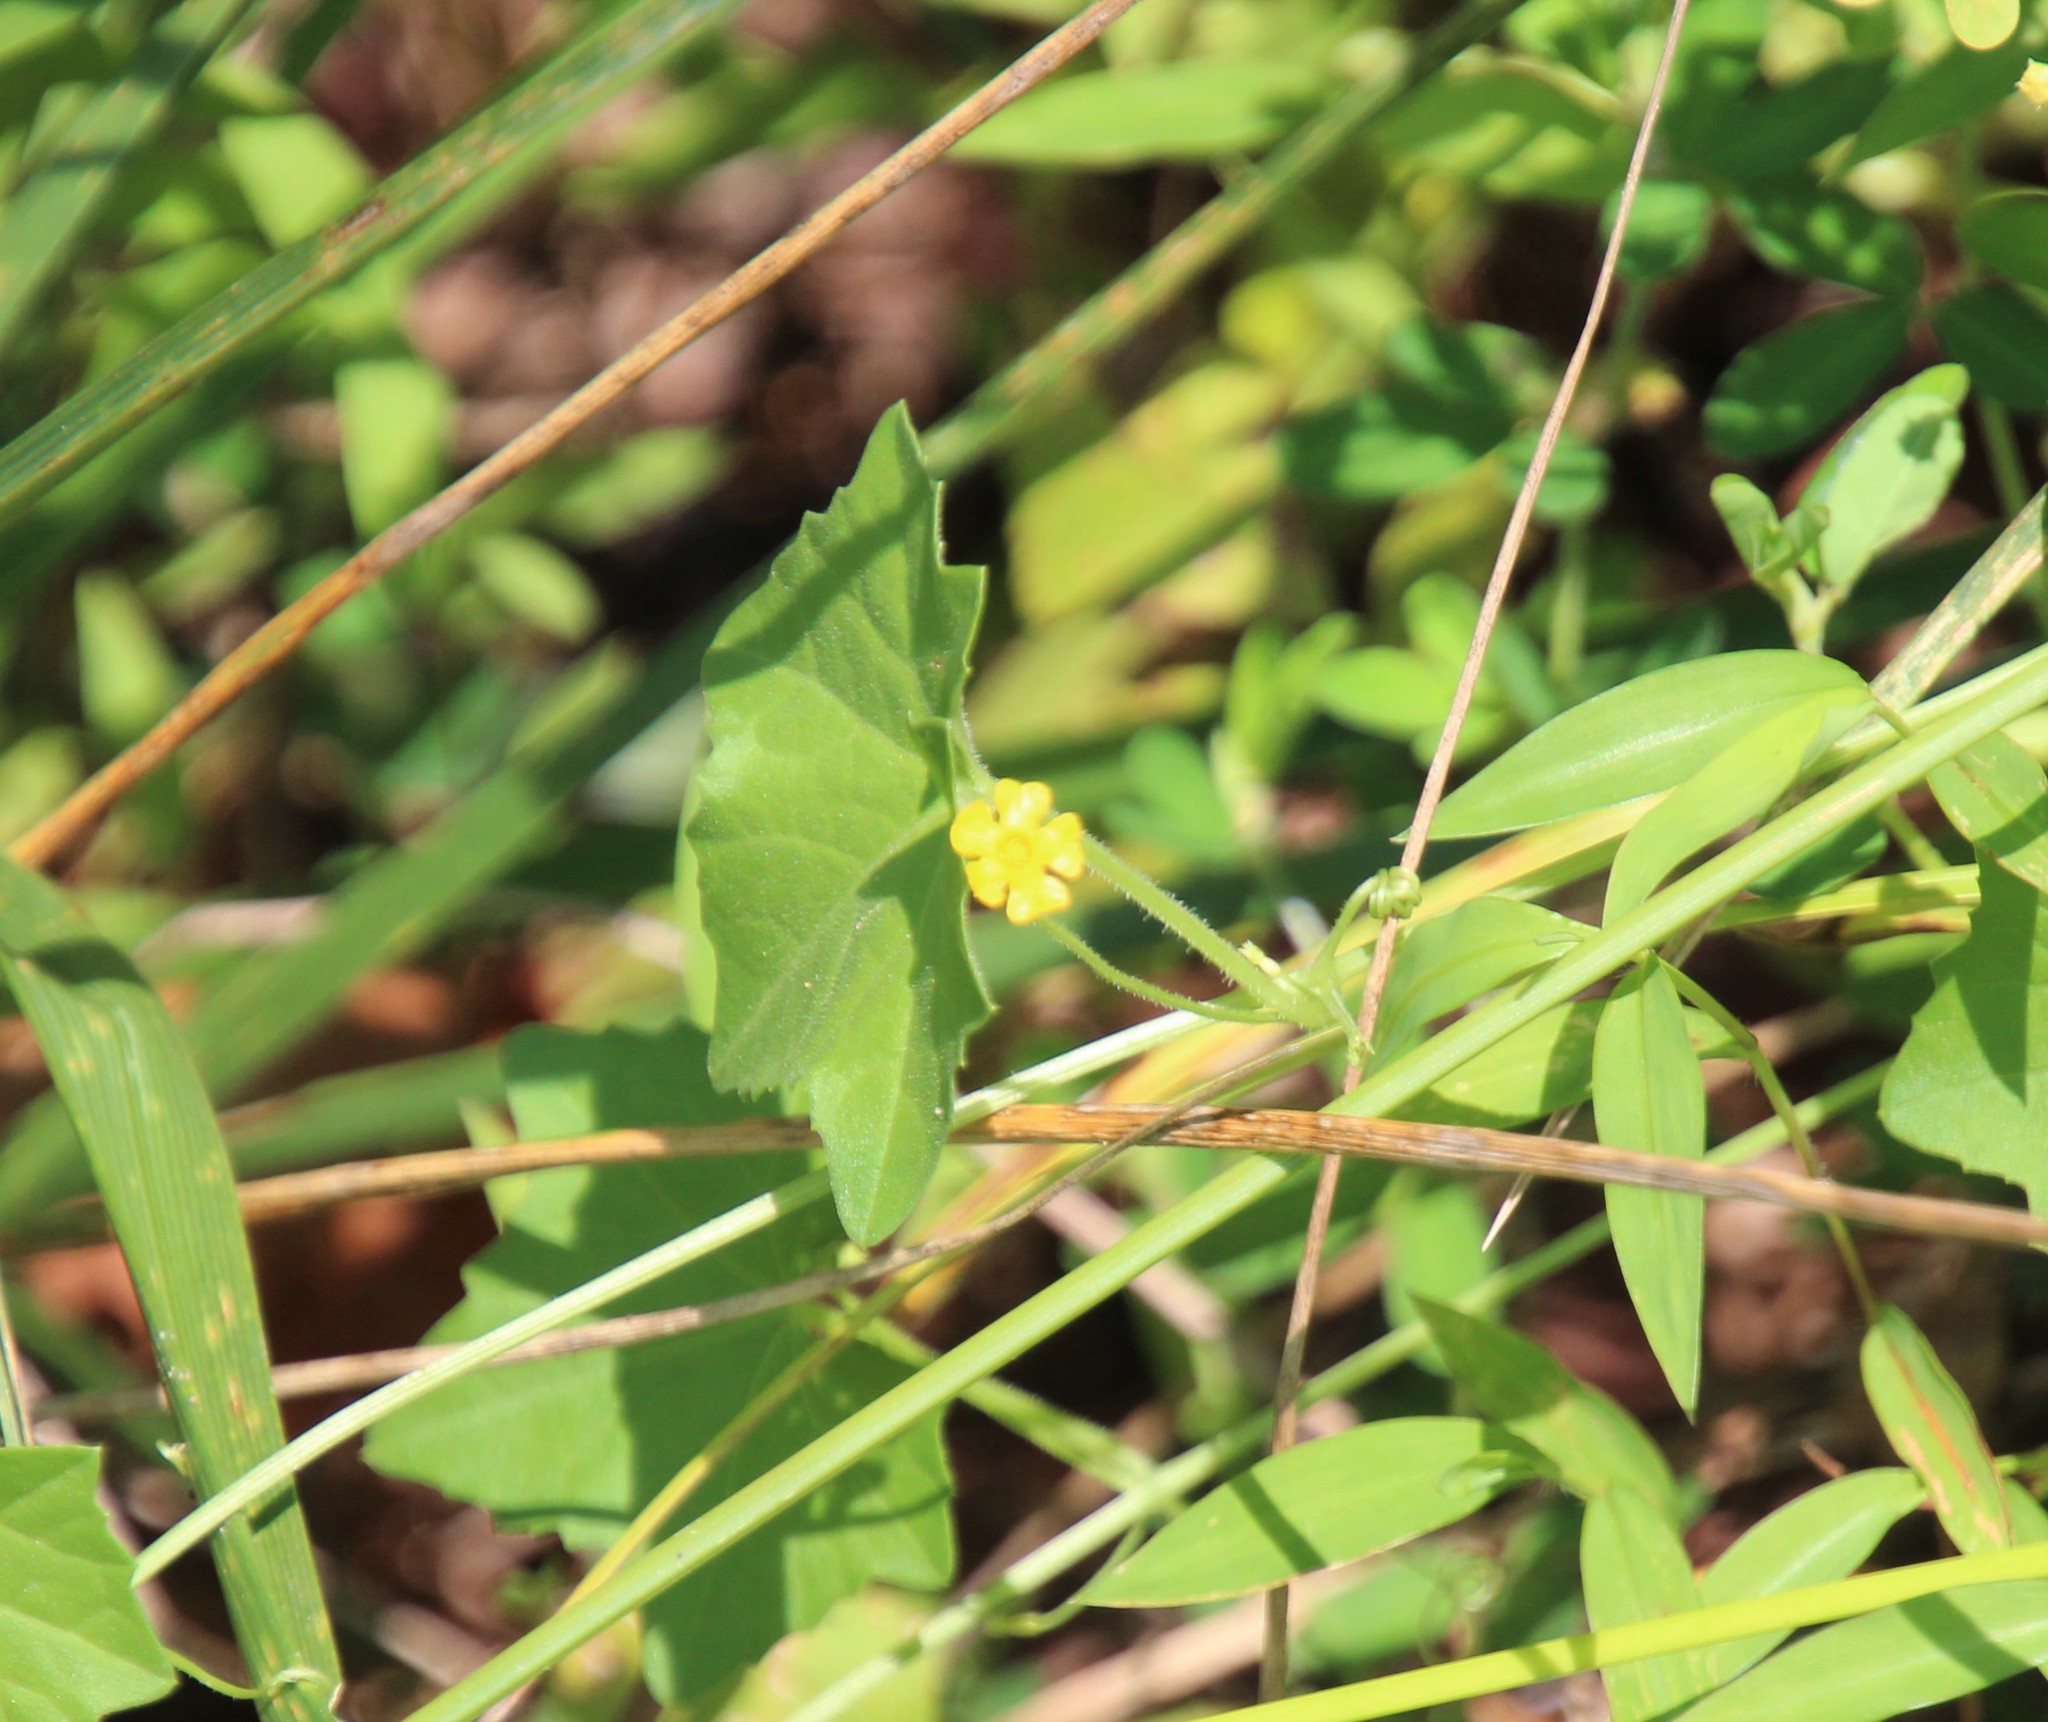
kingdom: Plantae
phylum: Tracheophyta
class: Magnoliopsida
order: Cucurbitales
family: Cucurbitaceae
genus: Melothria
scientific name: Melothria pendula
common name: Creeping-cucumber
